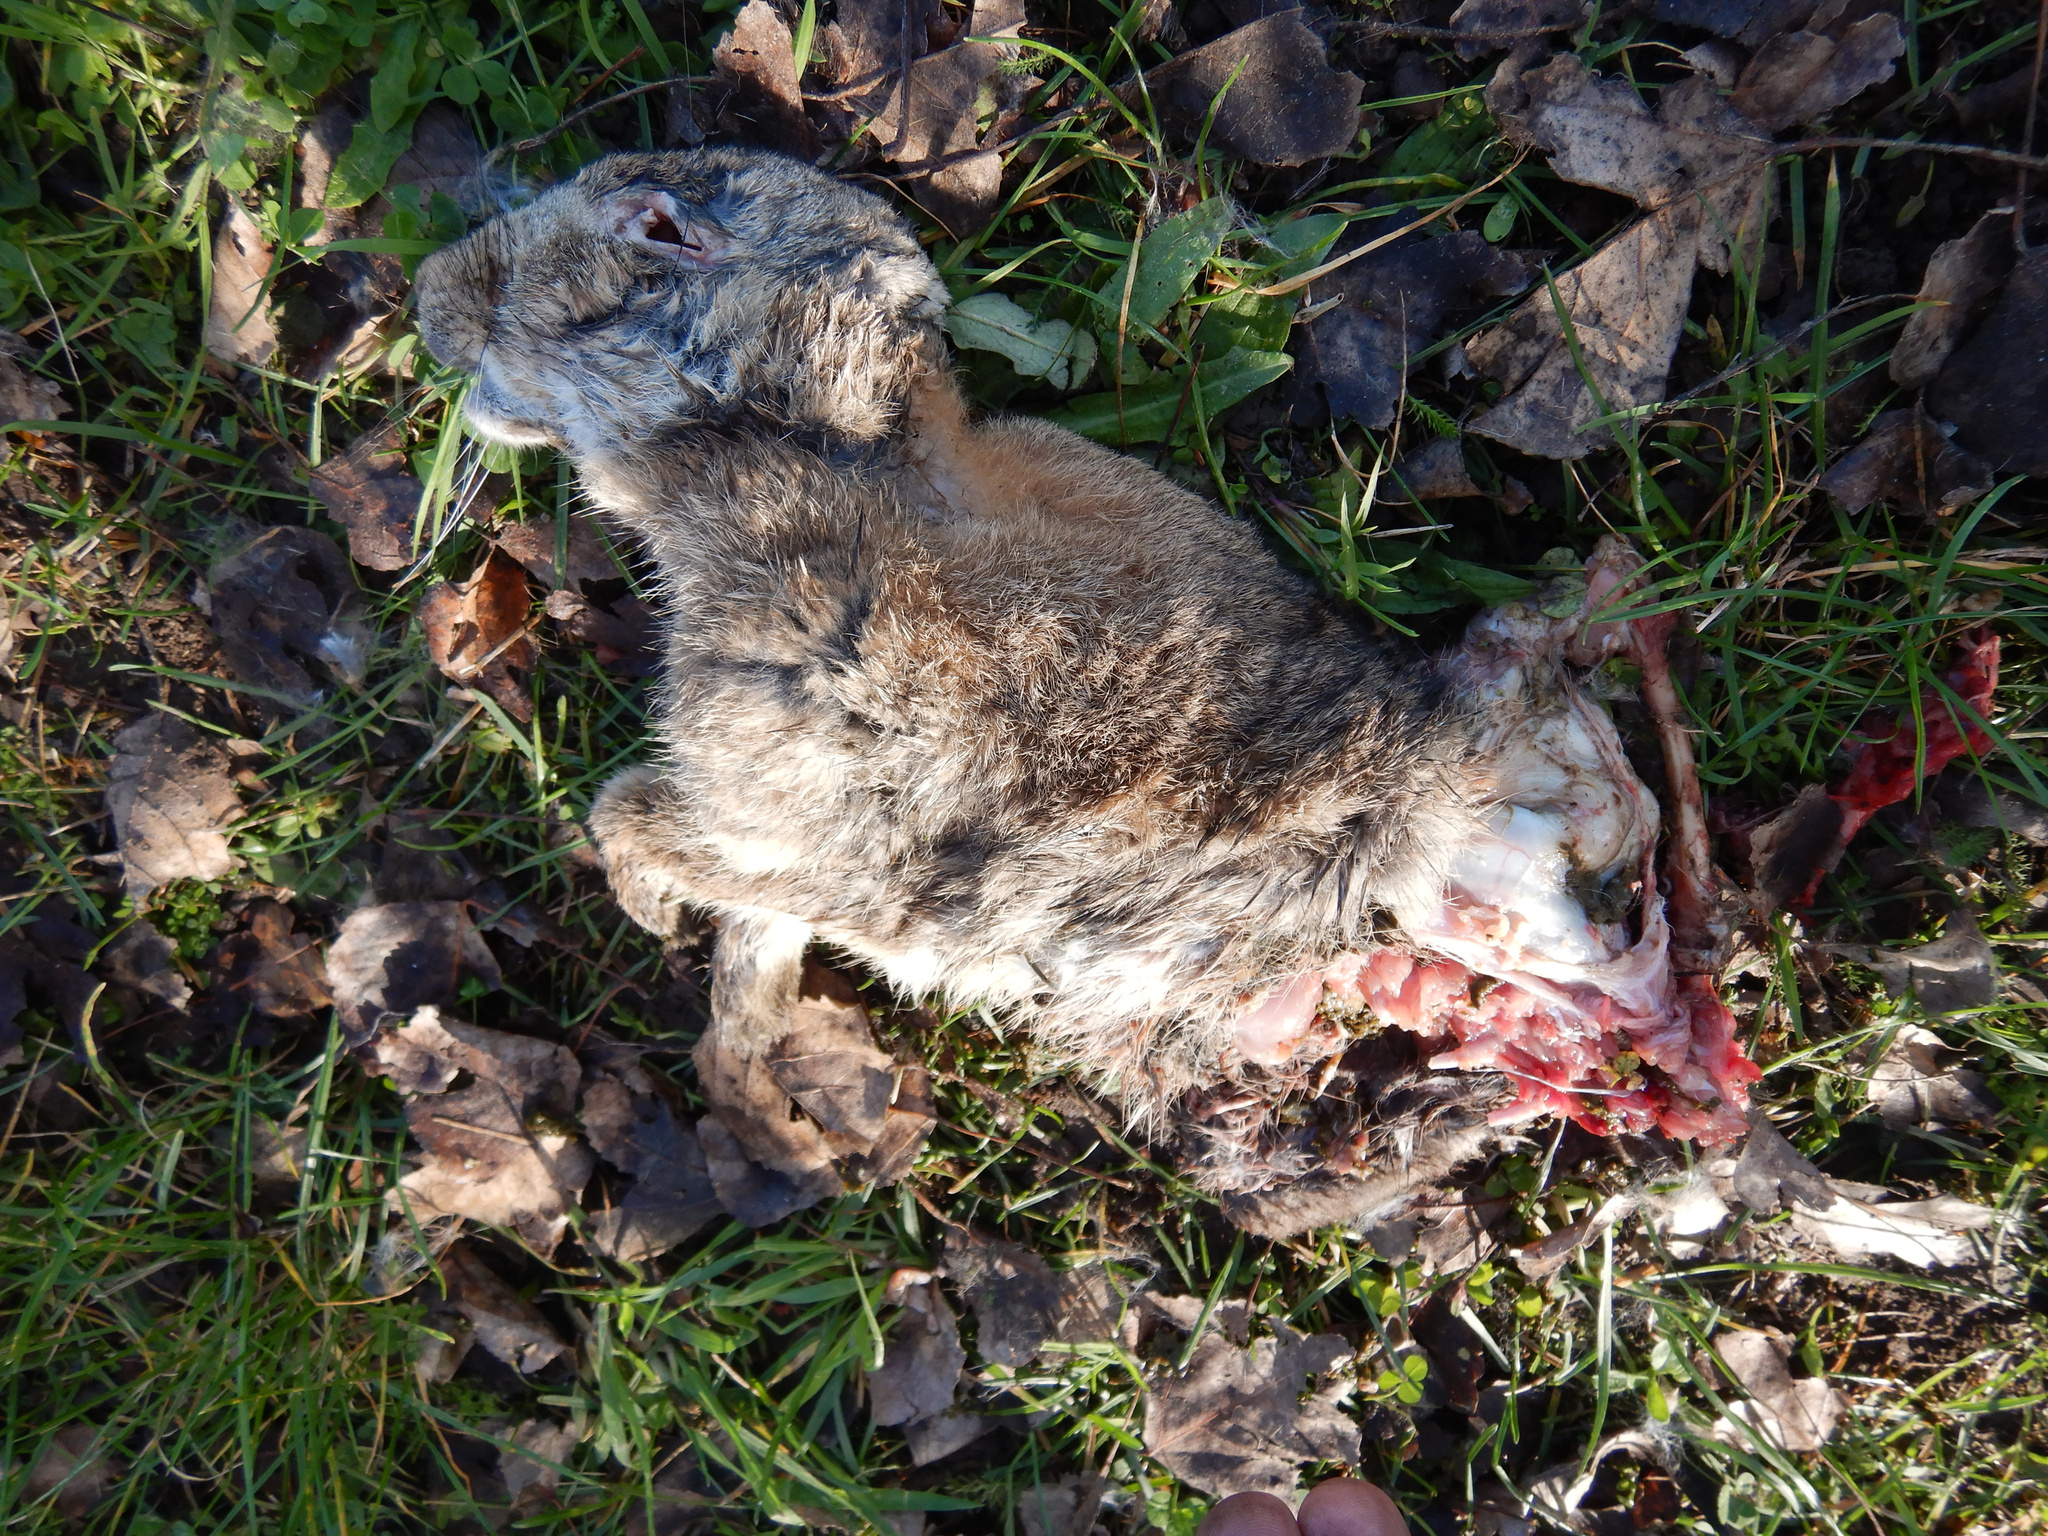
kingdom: Animalia
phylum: Chordata
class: Mammalia
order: Lagomorpha
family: Leporidae
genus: Oryctolagus
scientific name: Oryctolagus cuniculus
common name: European rabbit
